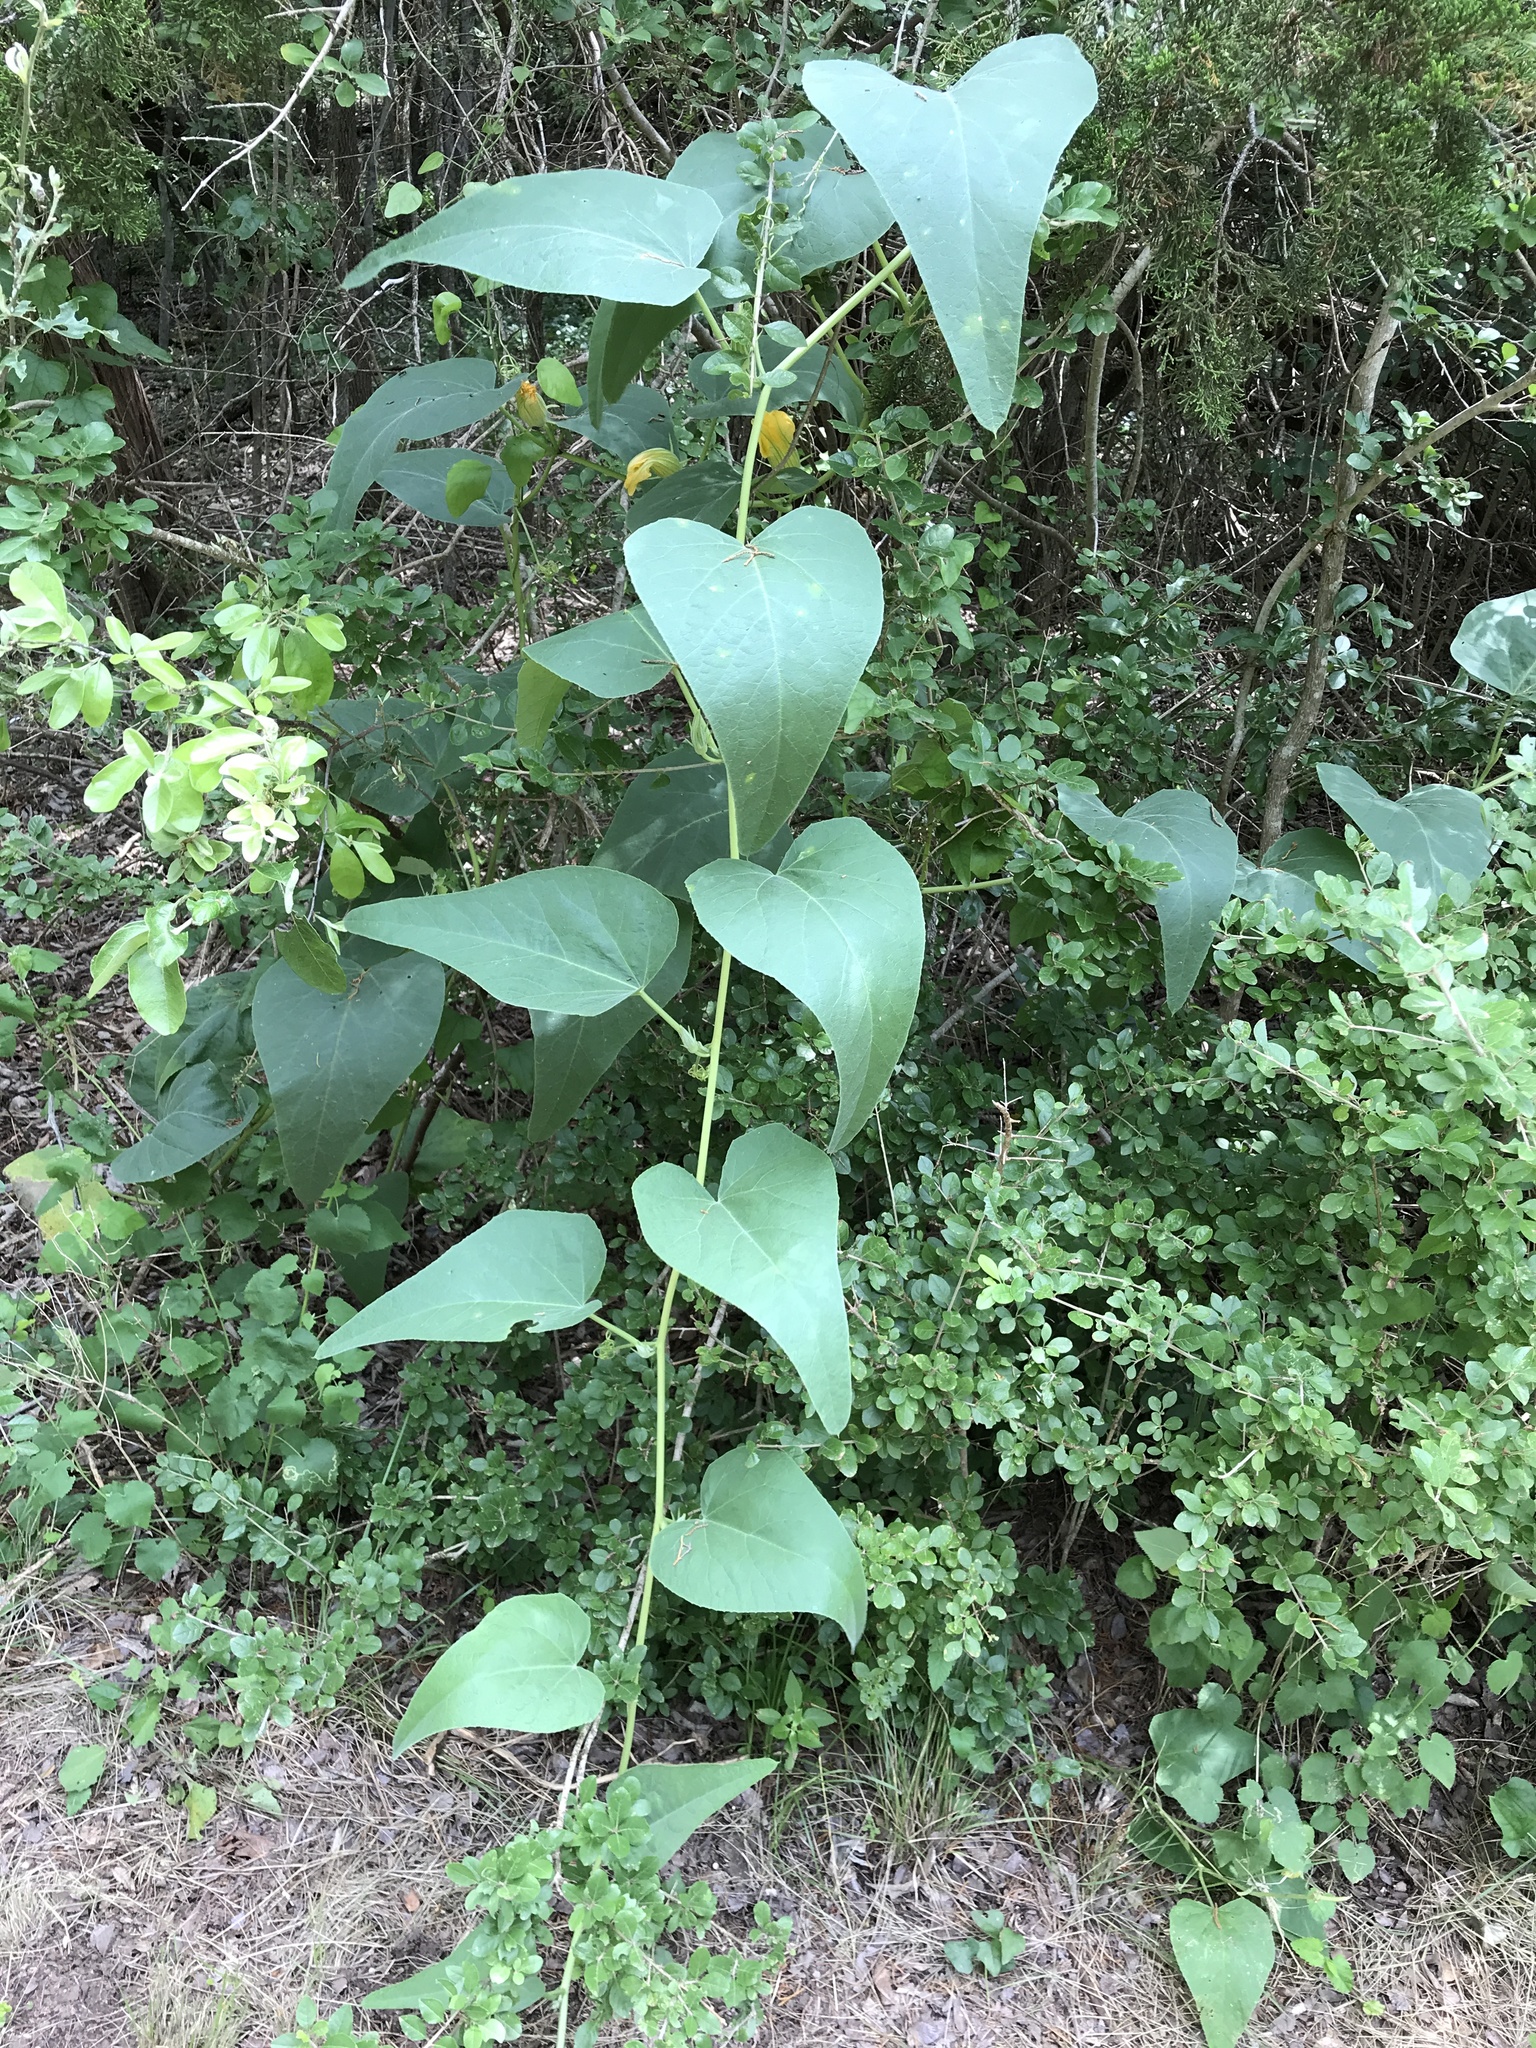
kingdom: Plantae
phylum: Tracheophyta
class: Magnoliopsida
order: Cucurbitales
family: Cucurbitaceae
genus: Cucurbita
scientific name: Cucurbita foetidissima
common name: Buffalo gourd
